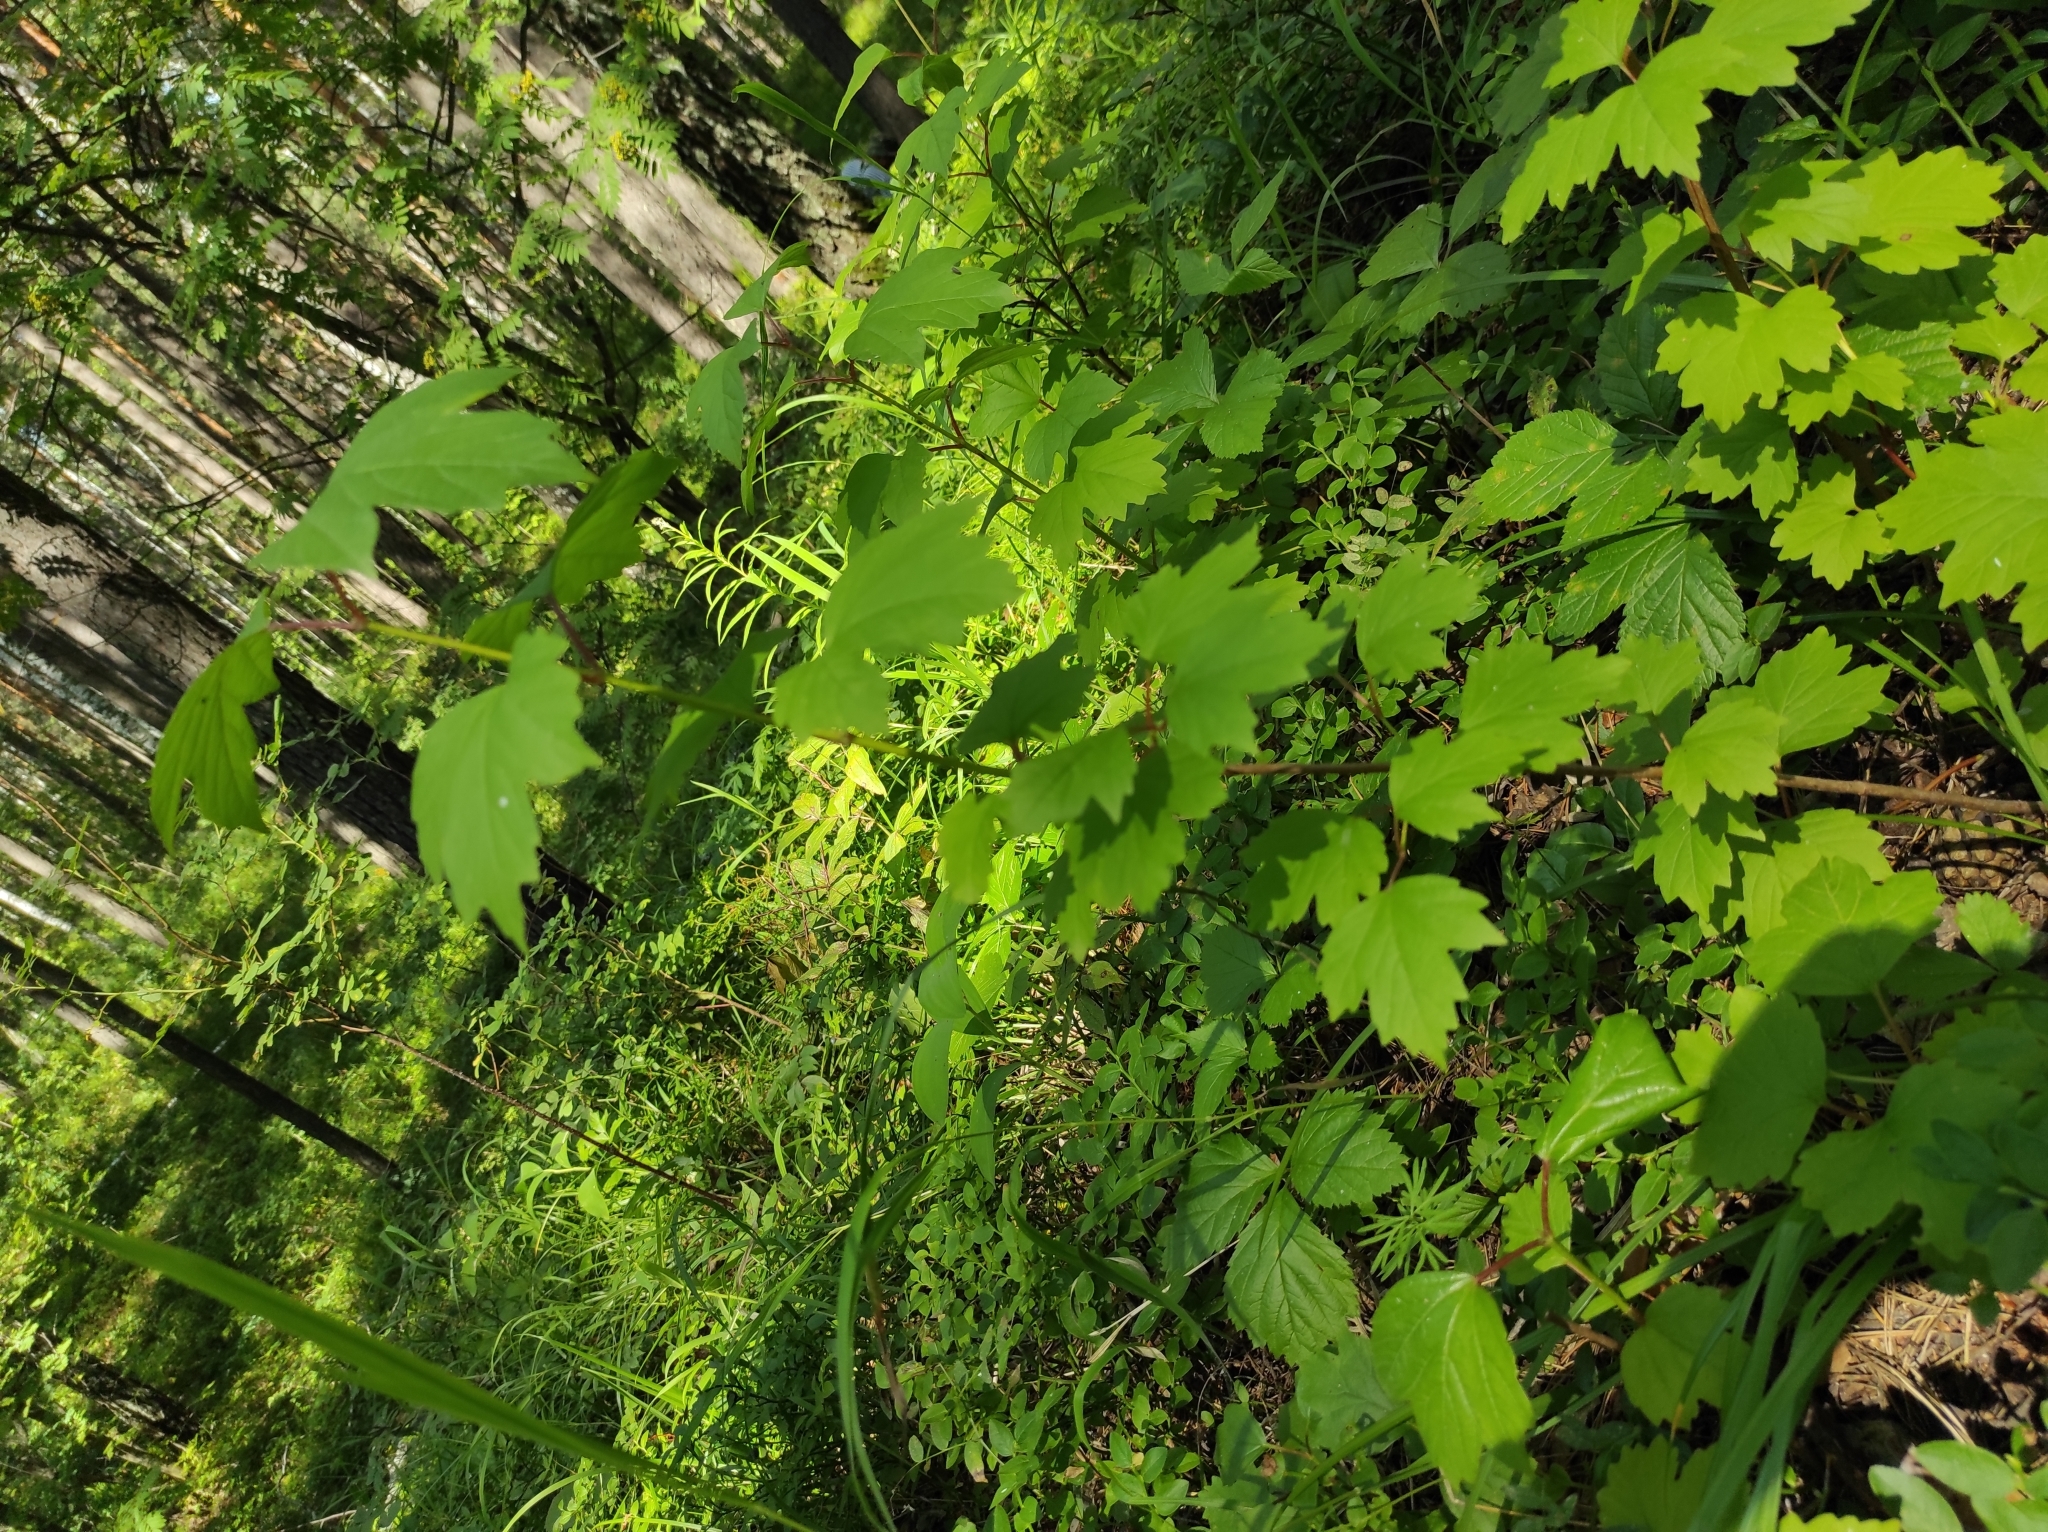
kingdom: Plantae
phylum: Tracheophyta
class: Magnoliopsida
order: Dipsacales
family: Viburnaceae
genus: Viburnum
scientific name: Viburnum opulus
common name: Guelder-rose
